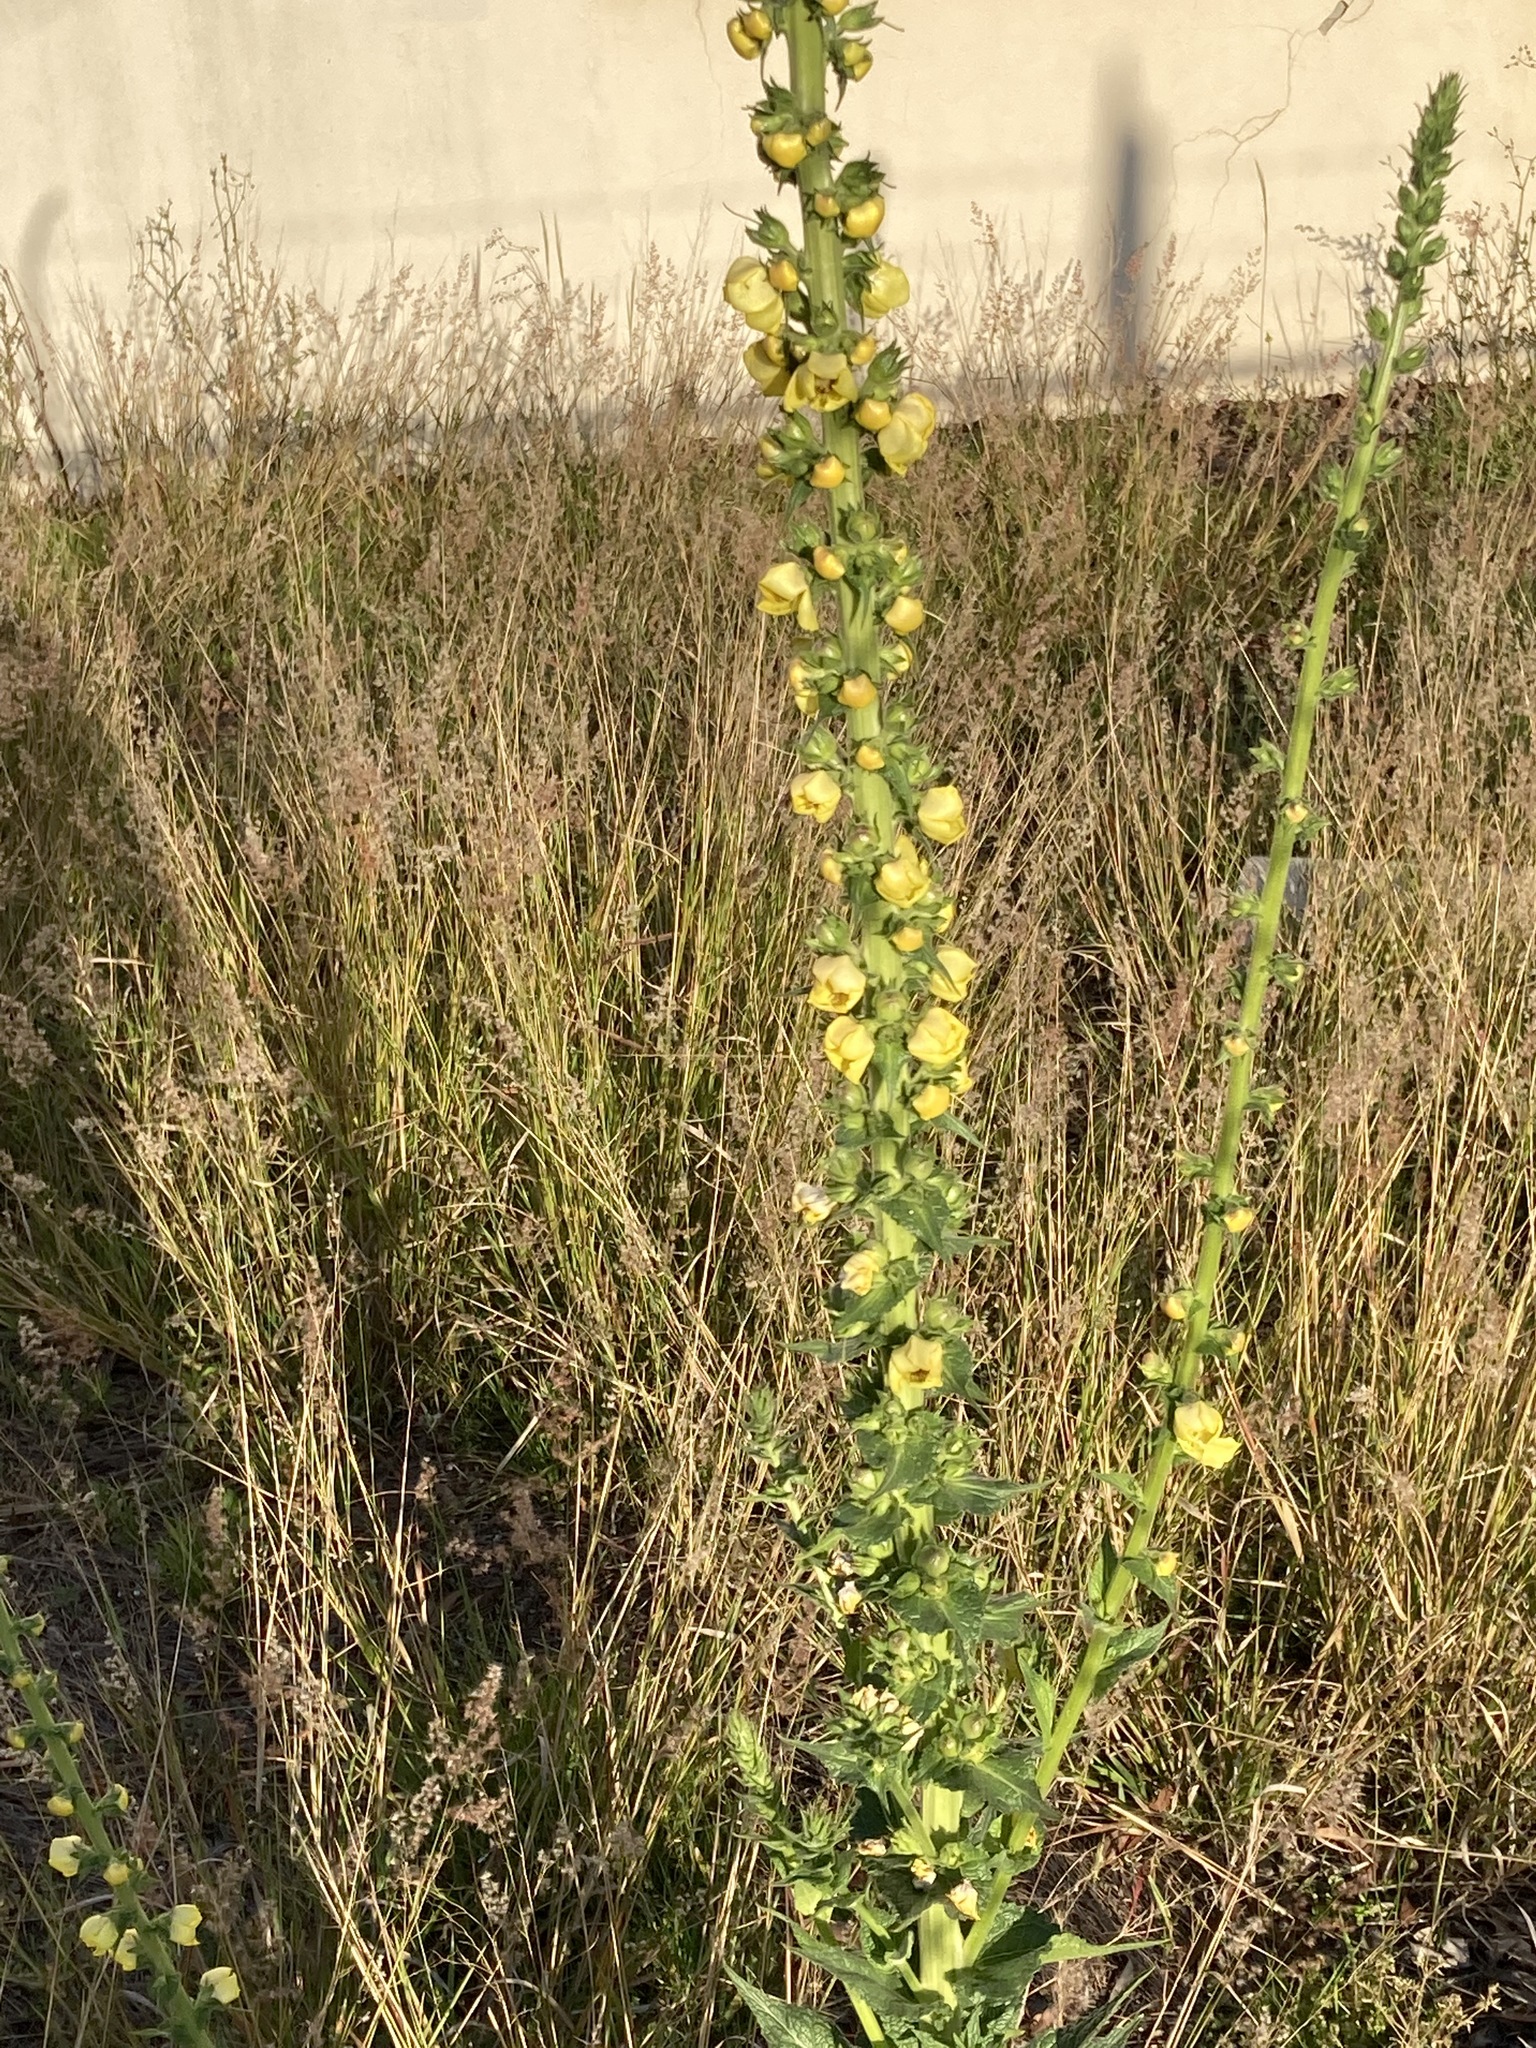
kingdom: Plantae
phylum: Tracheophyta
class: Magnoliopsida
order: Lamiales
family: Scrophulariaceae
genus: Verbascum
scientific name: Verbascum virgatum
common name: Twiggy mullein
